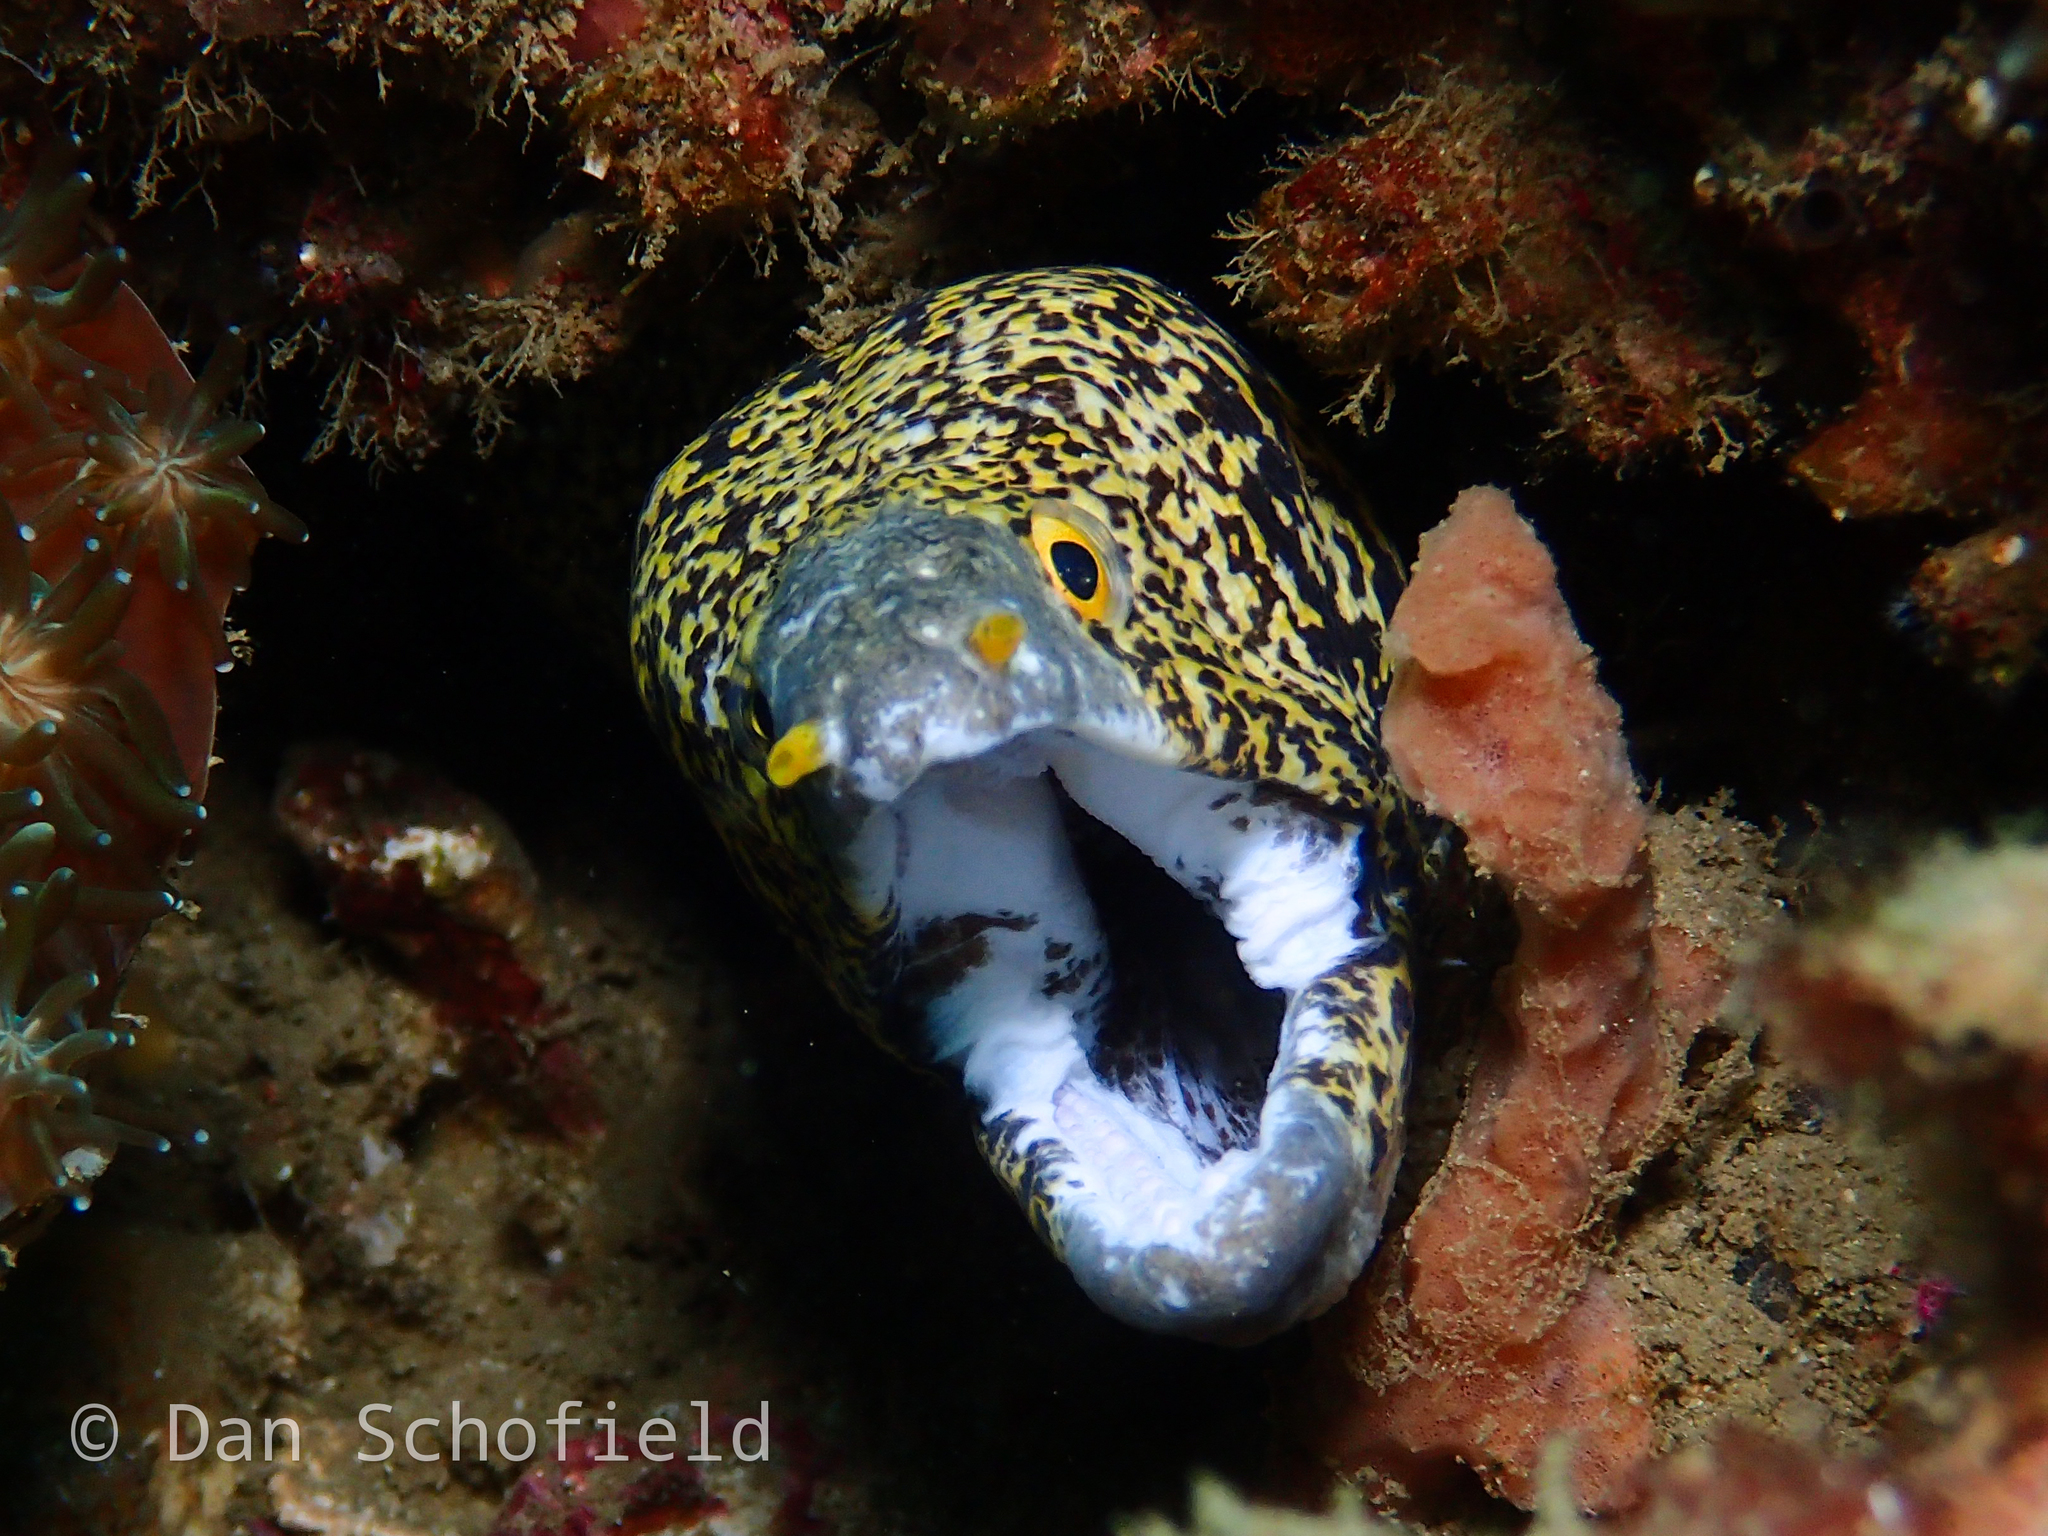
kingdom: Animalia
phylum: Chordata
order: Anguilliformes
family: Muraenidae
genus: Echidna
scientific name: Echidna nebulosa
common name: Snowflake moray
